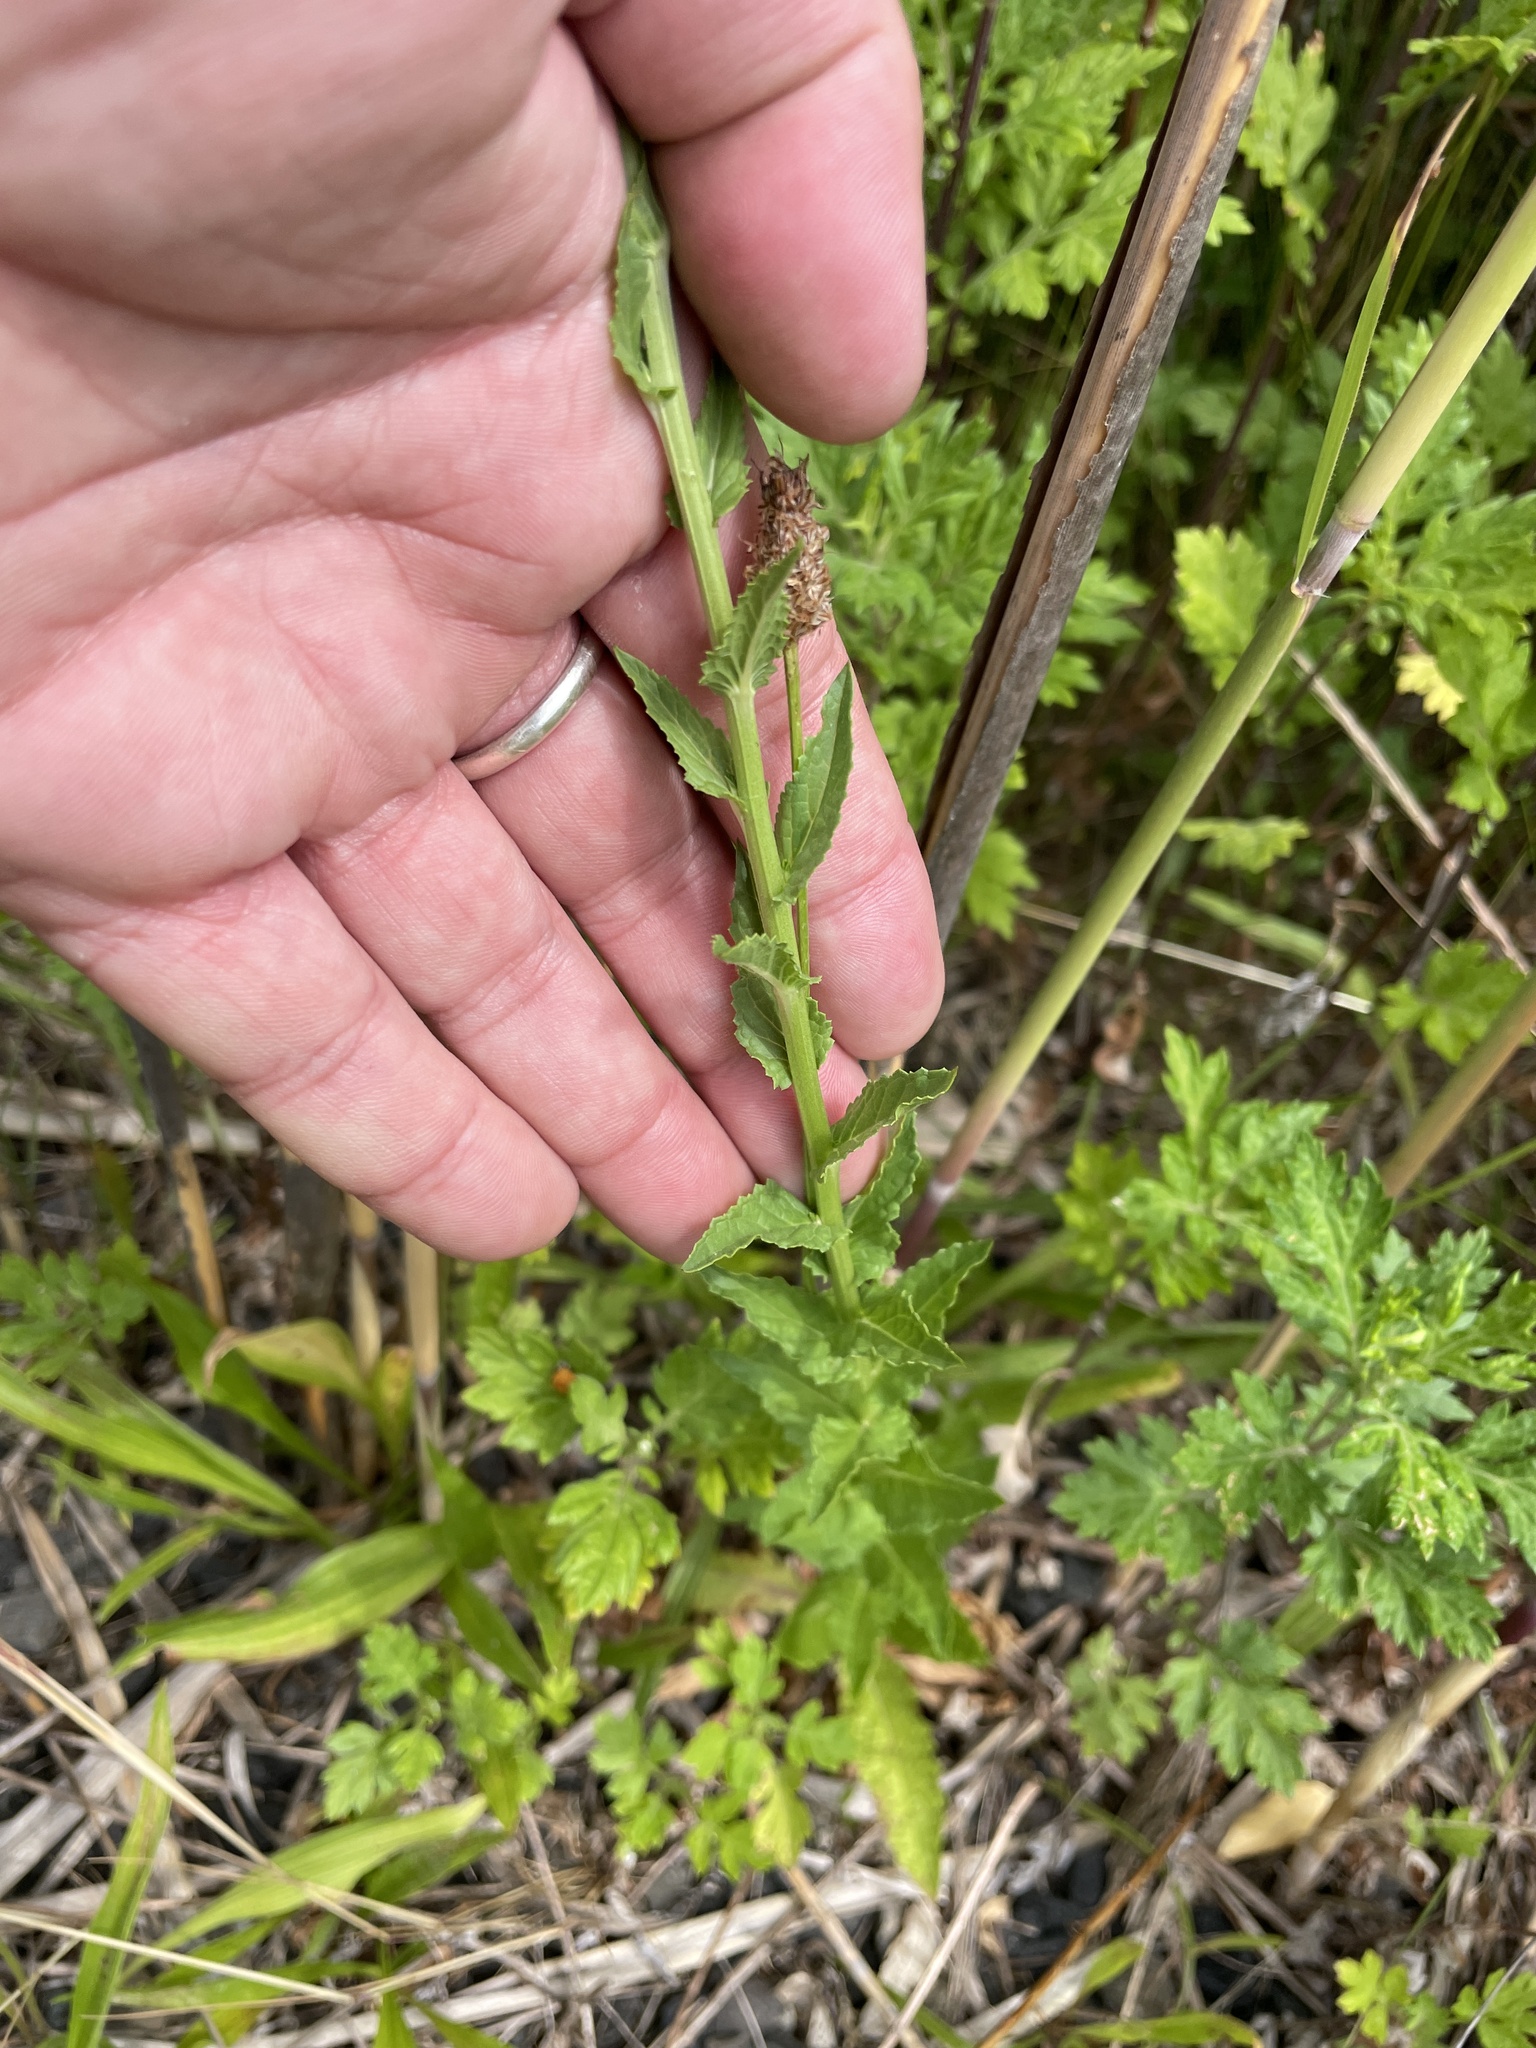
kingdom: Plantae
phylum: Tracheophyta
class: Magnoliopsida
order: Lamiales
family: Scrophulariaceae
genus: Verbascum
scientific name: Verbascum blattaria
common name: Moth mullein
